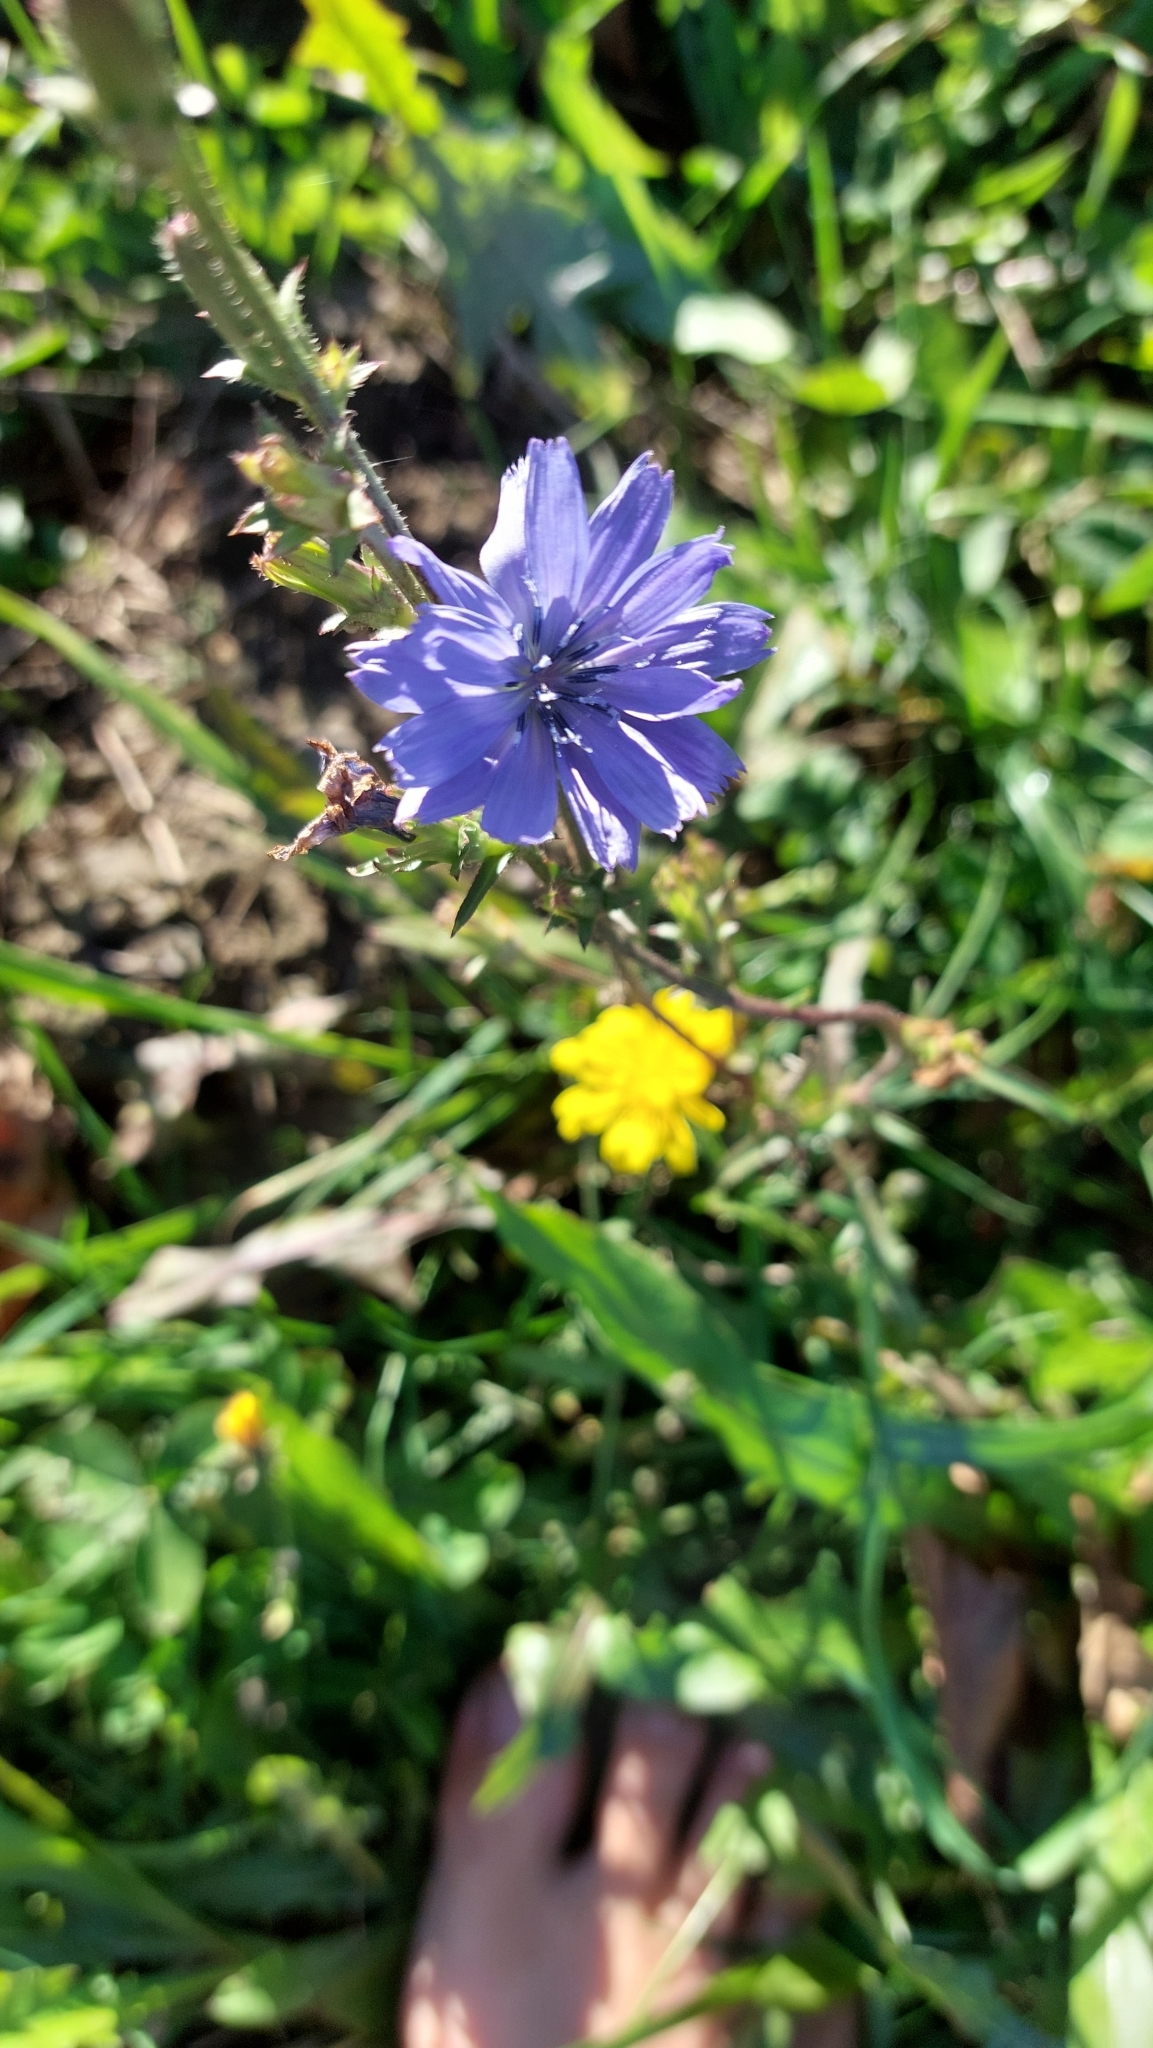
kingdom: Plantae
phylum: Tracheophyta
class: Magnoliopsida
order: Asterales
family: Asteraceae
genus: Cichorium
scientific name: Cichorium intybus
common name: Chicory
